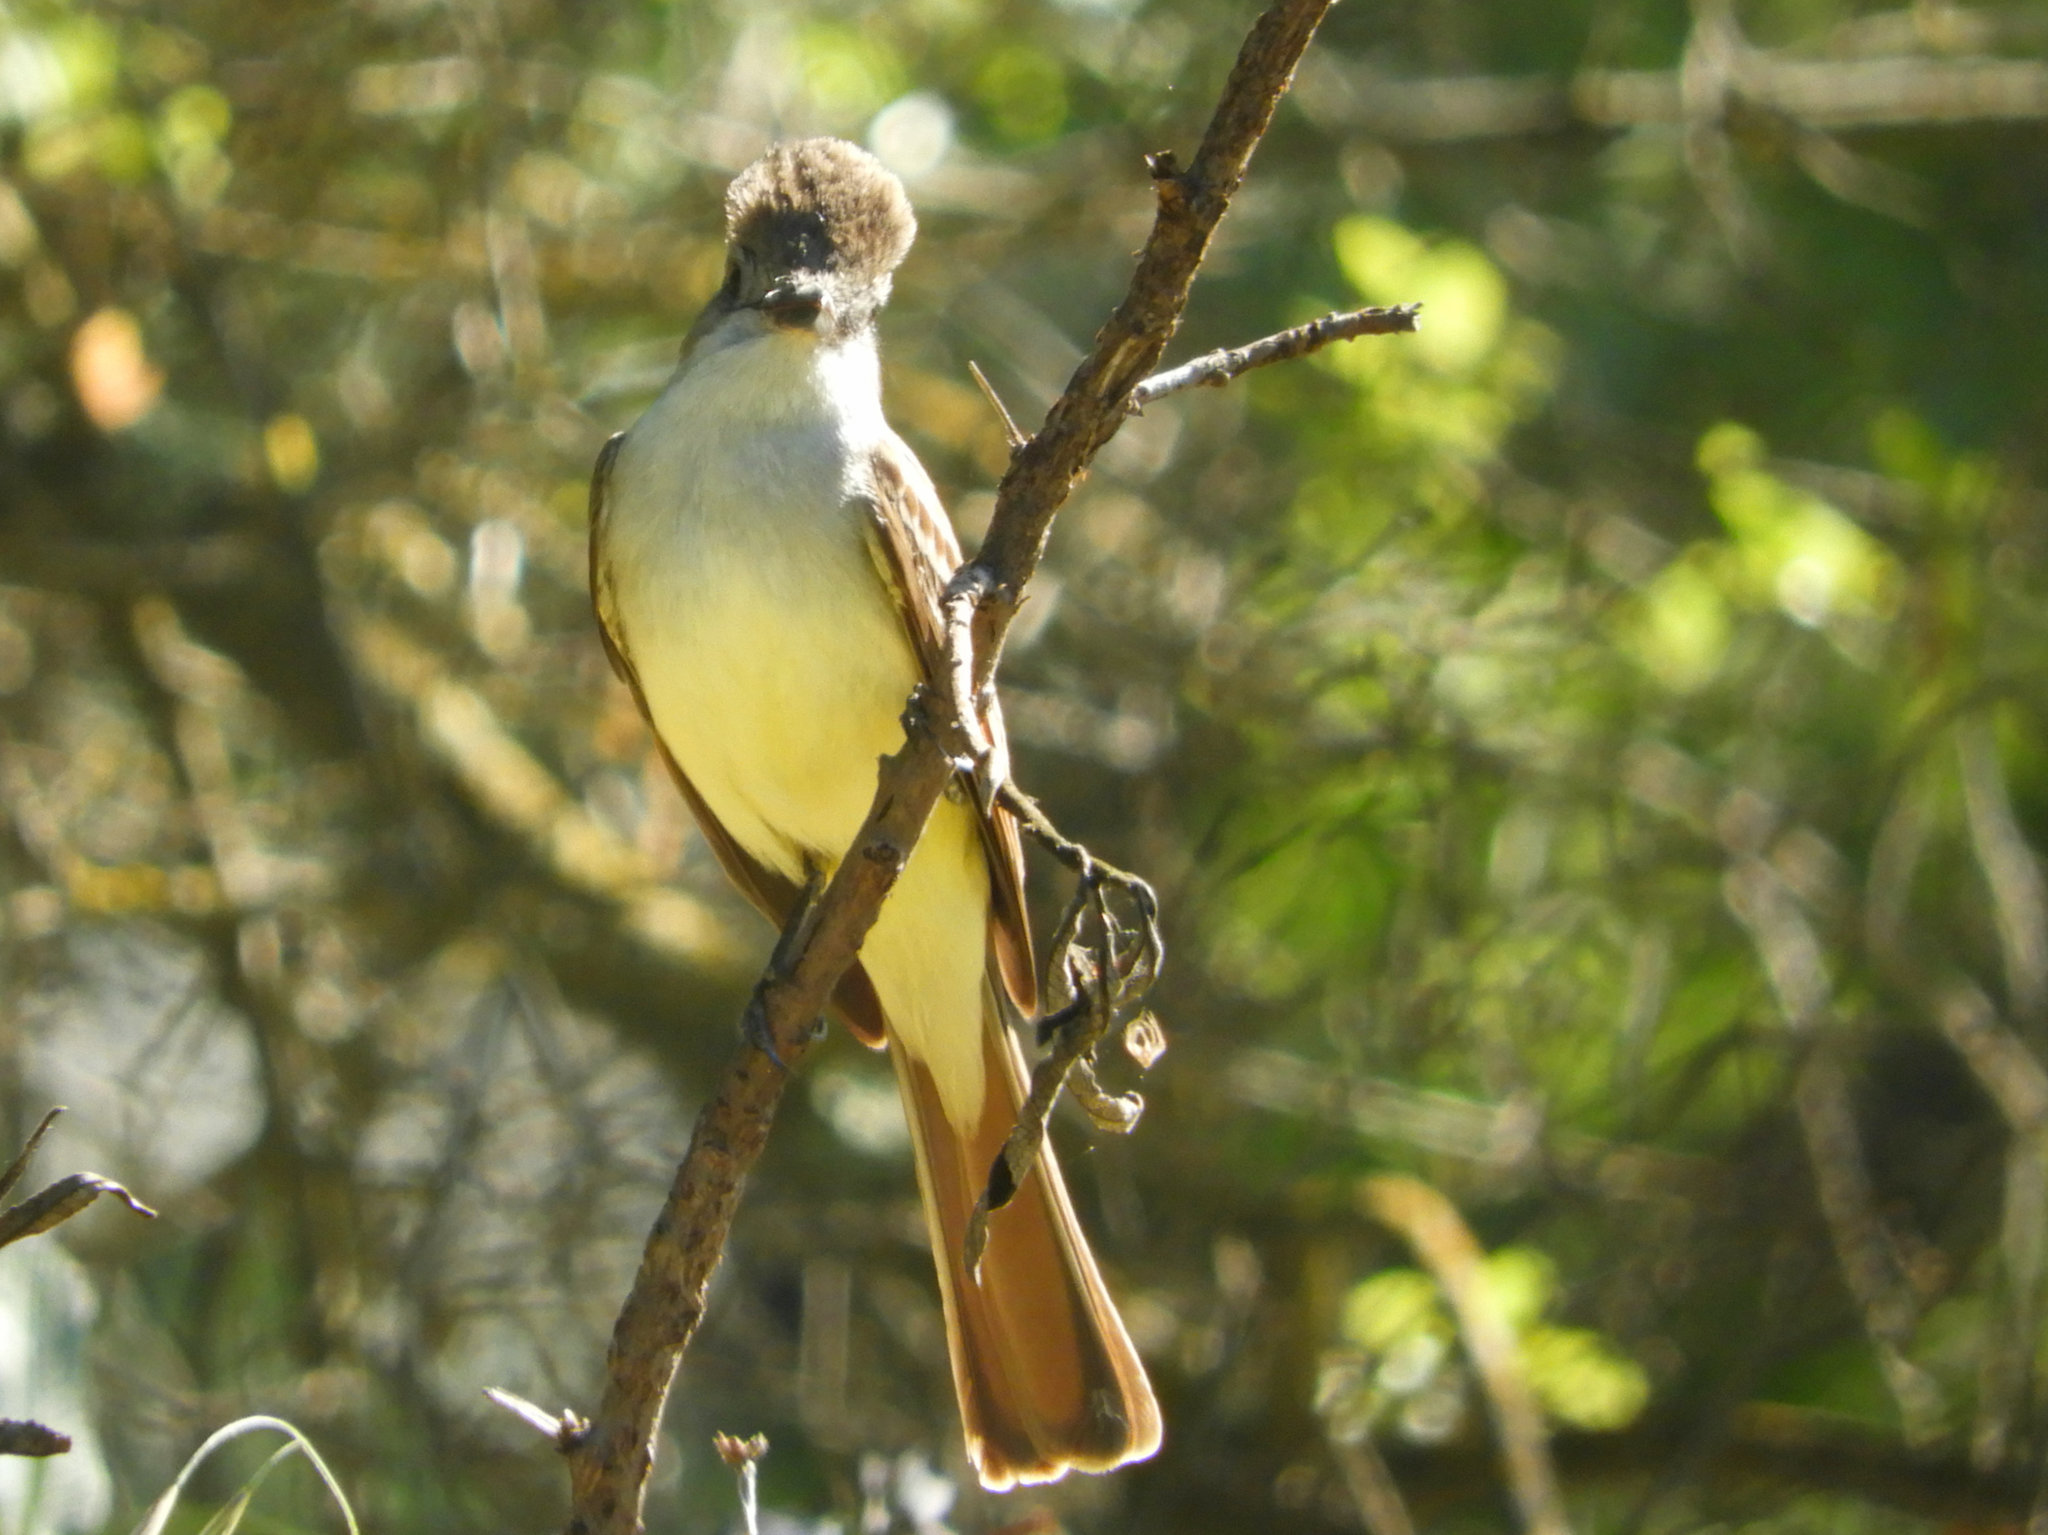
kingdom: Animalia
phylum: Chordata
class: Aves
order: Passeriformes
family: Tyrannidae
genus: Myiarchus
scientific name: Myiarchus cinerascens
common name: Ash-throated flycatcher
